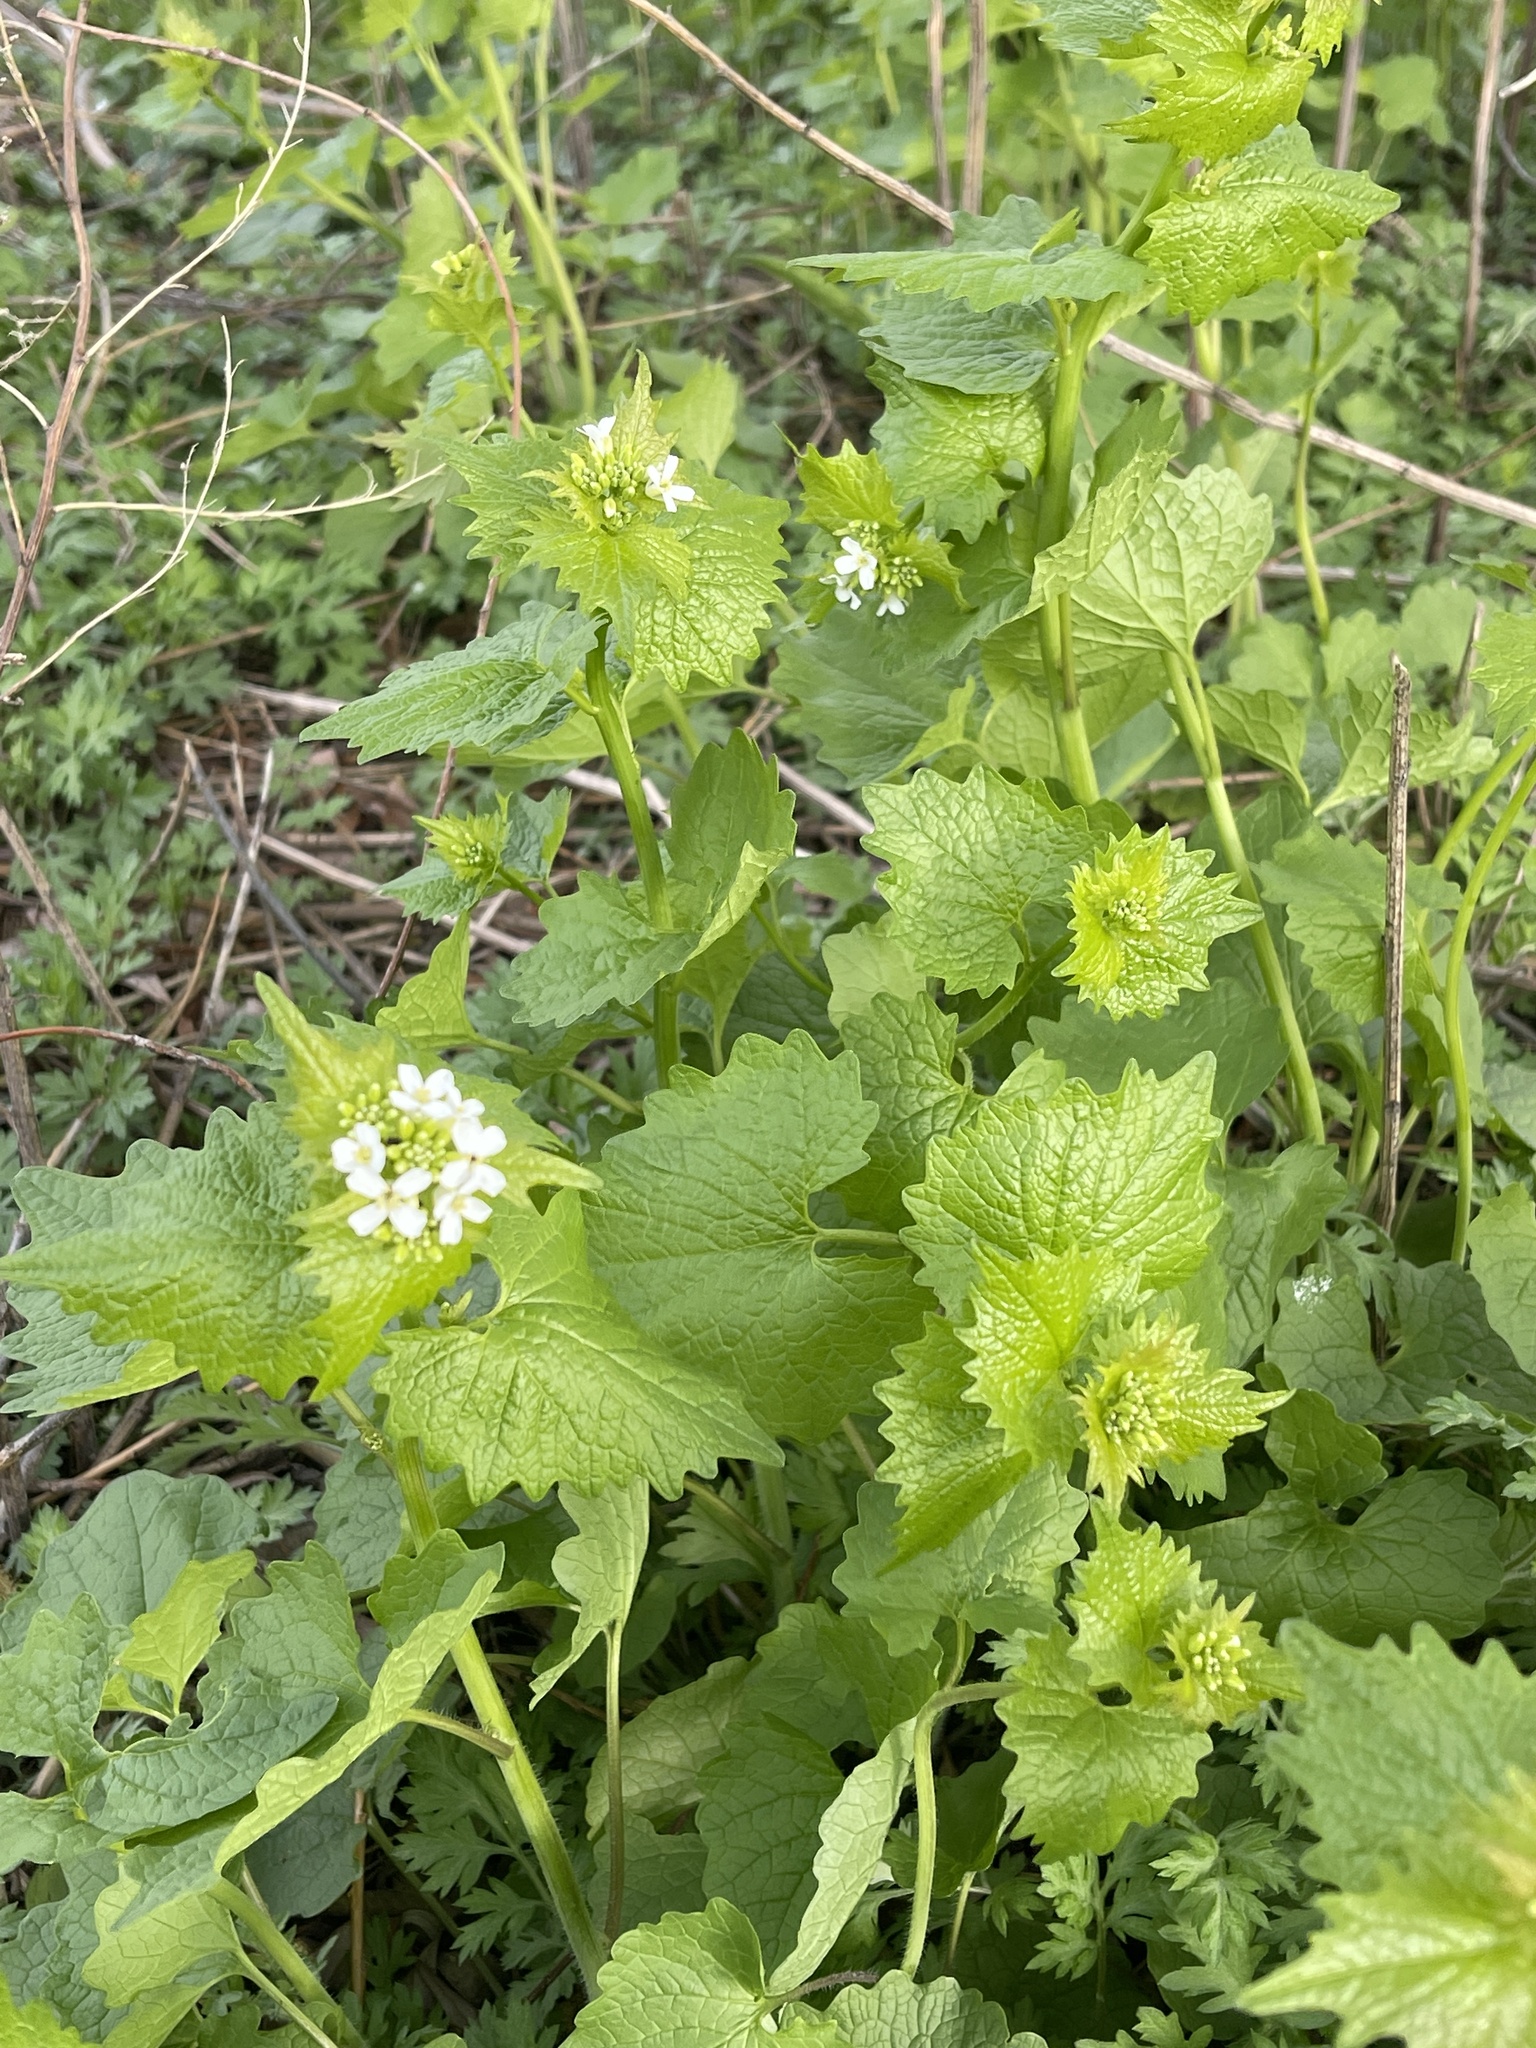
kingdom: Plantae
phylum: Tracheophyta
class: Magnoliopsida
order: Brassicales
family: Brassicaceae
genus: Alliaria
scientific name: Alliaria petiolata
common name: Garlic mustard
